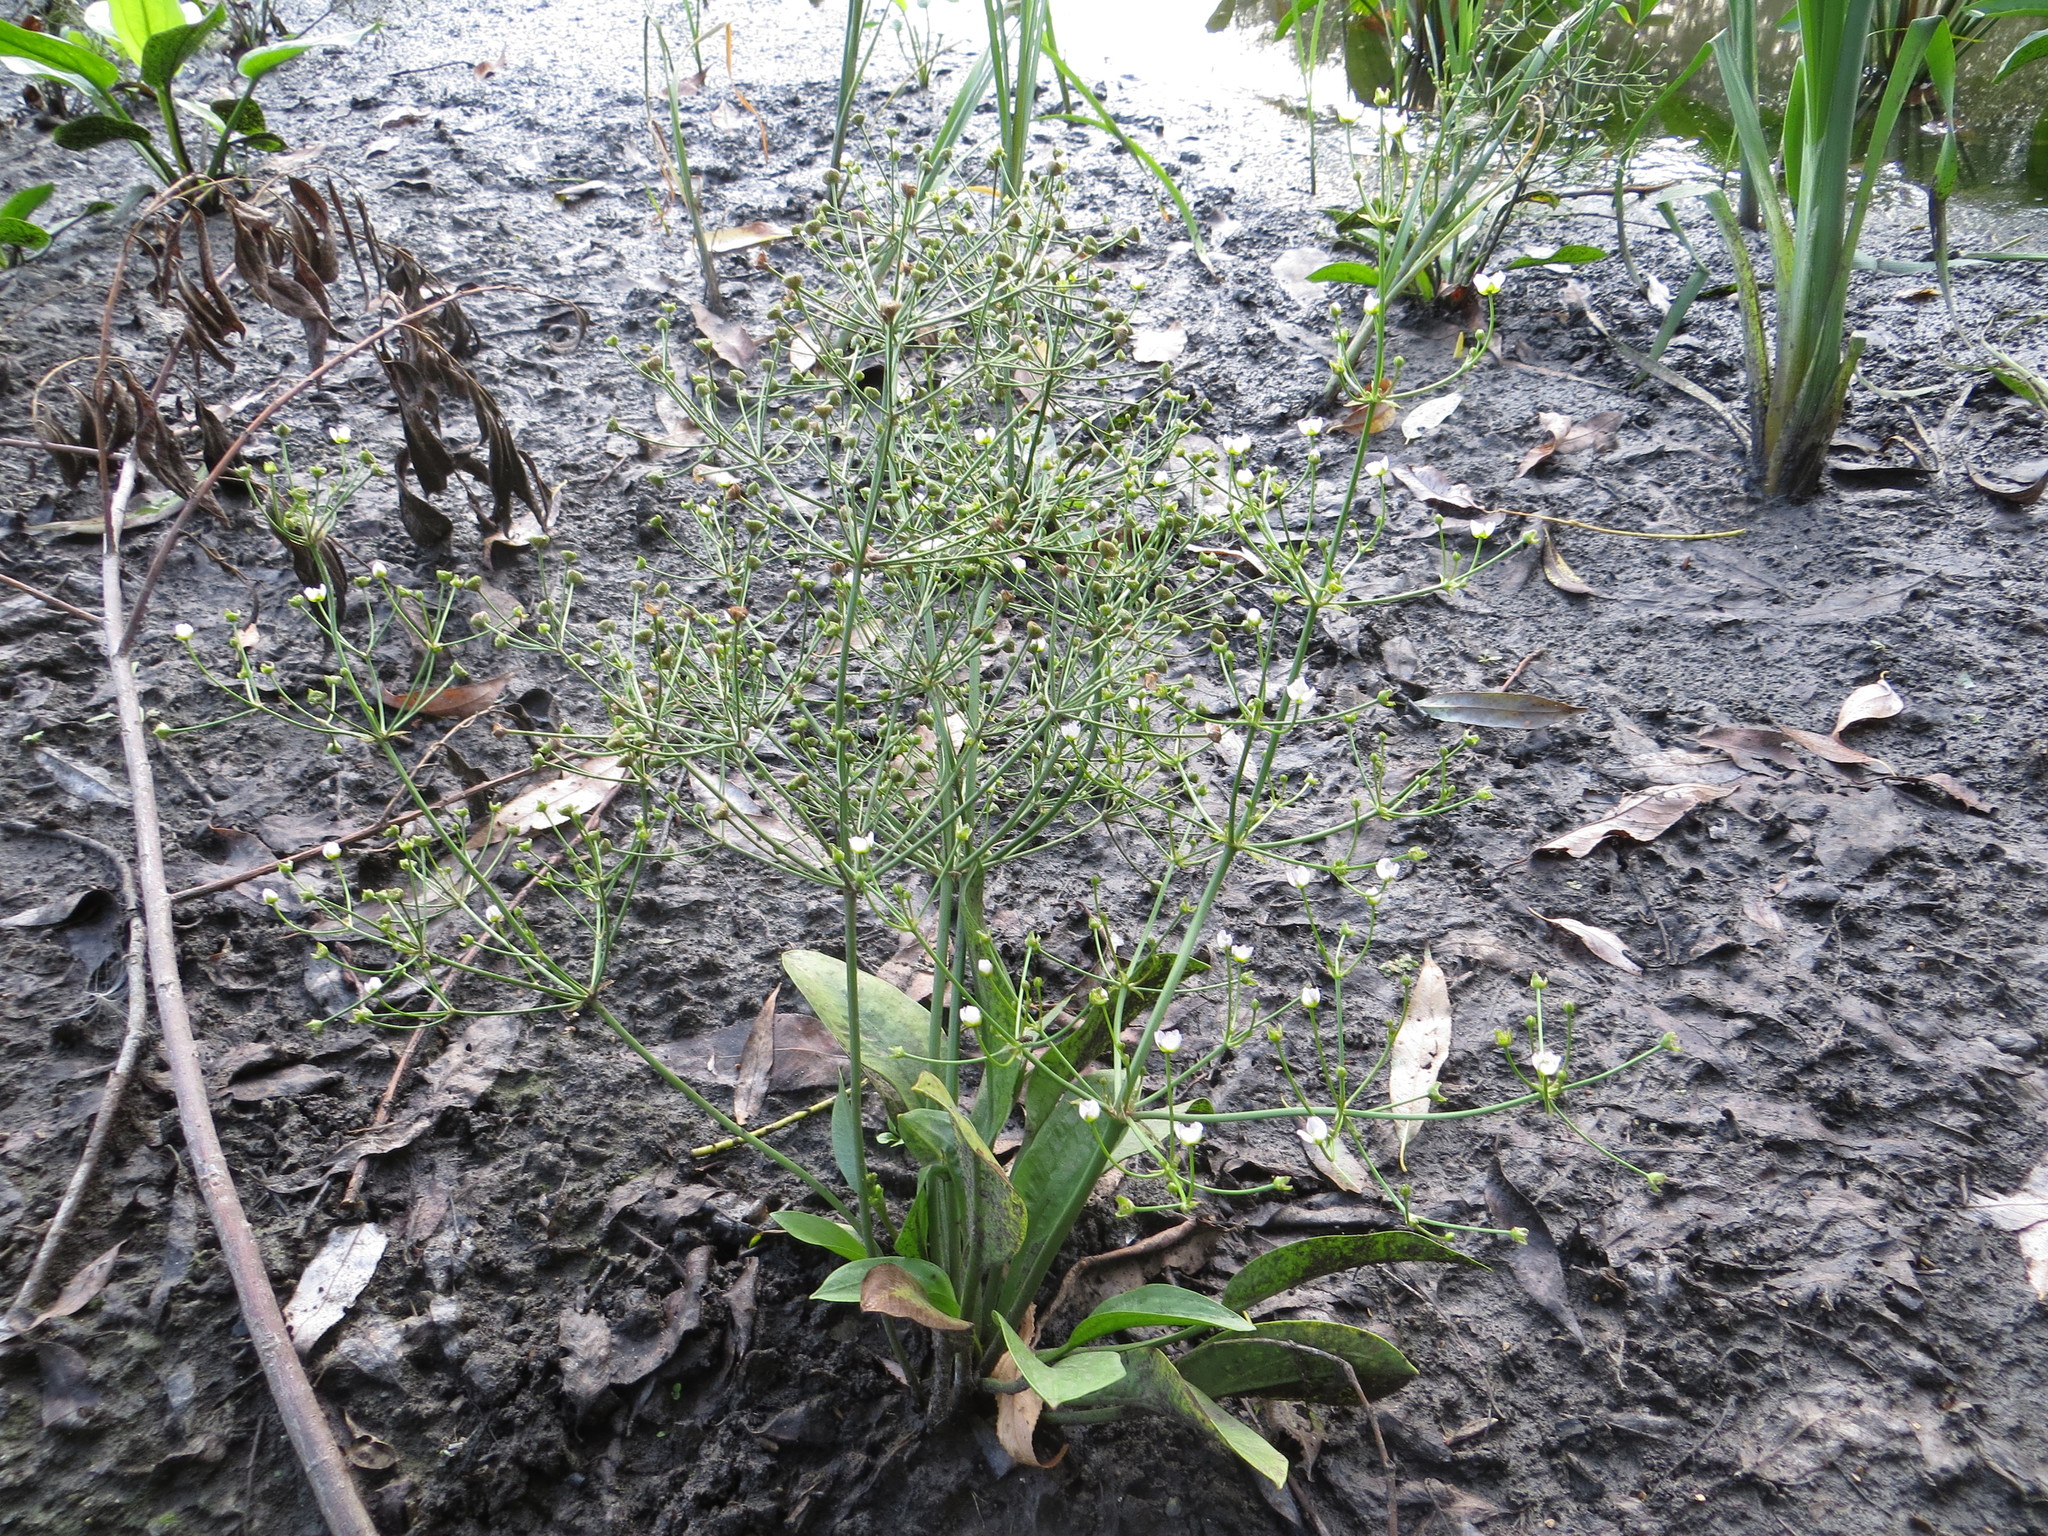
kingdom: Plantae
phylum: Tracheophyta
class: Liliopsida
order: Alismatales
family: Alismataceae
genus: Alisma
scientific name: Alisma plantago-aquatica
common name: Water-plantain
